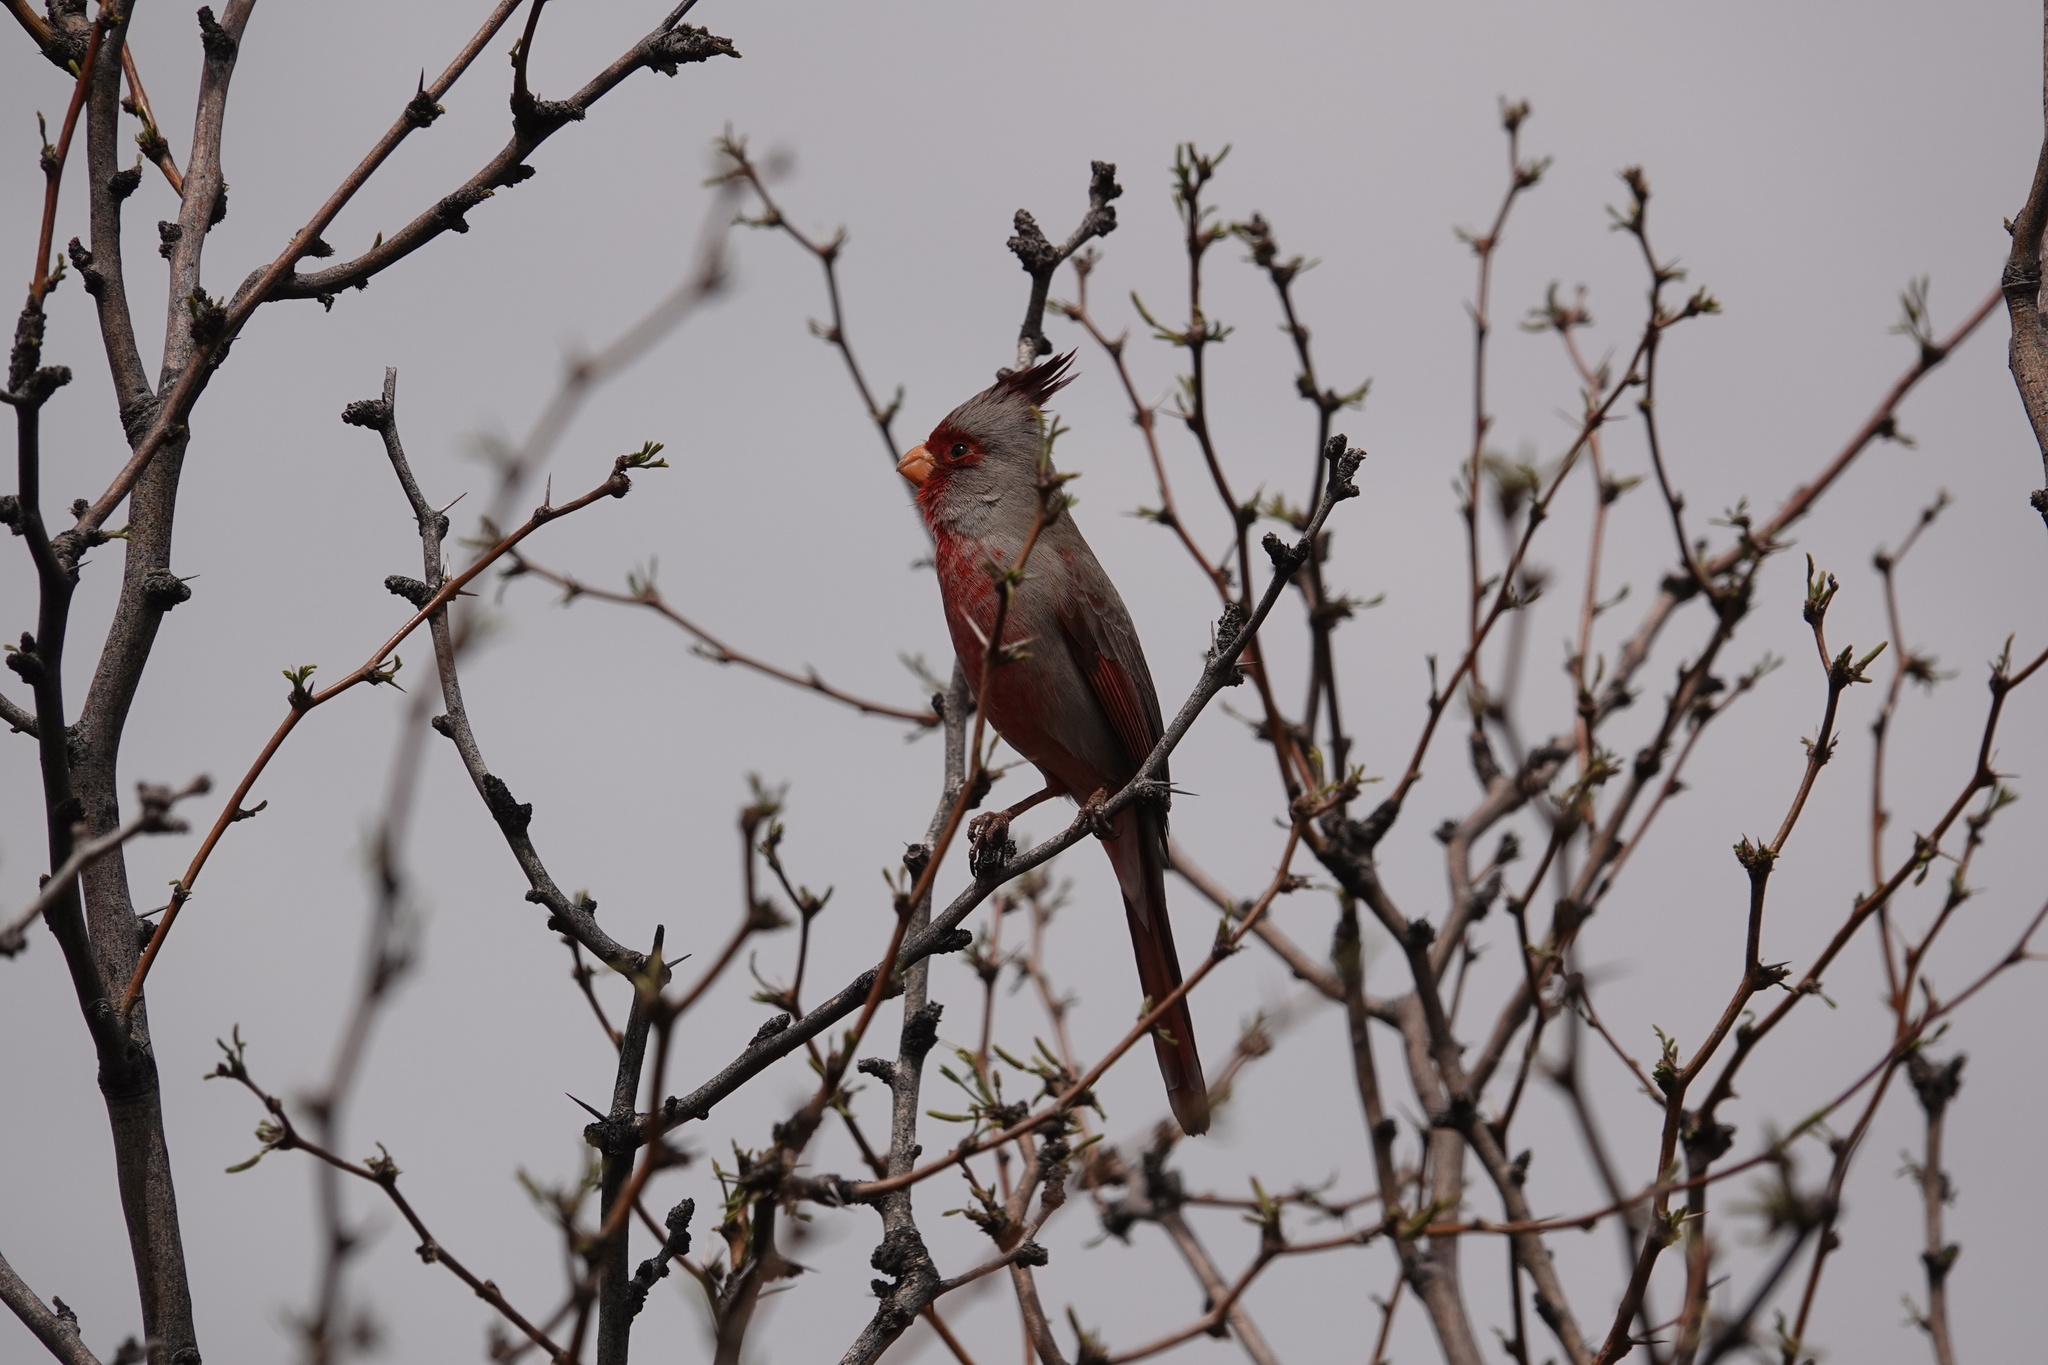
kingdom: Animalia
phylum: Chordata
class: Aves
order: Passeriformes
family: Cardinalidae
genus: Cardinalis
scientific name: Cardinalis sinuatus
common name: Pyrrhuloxia
